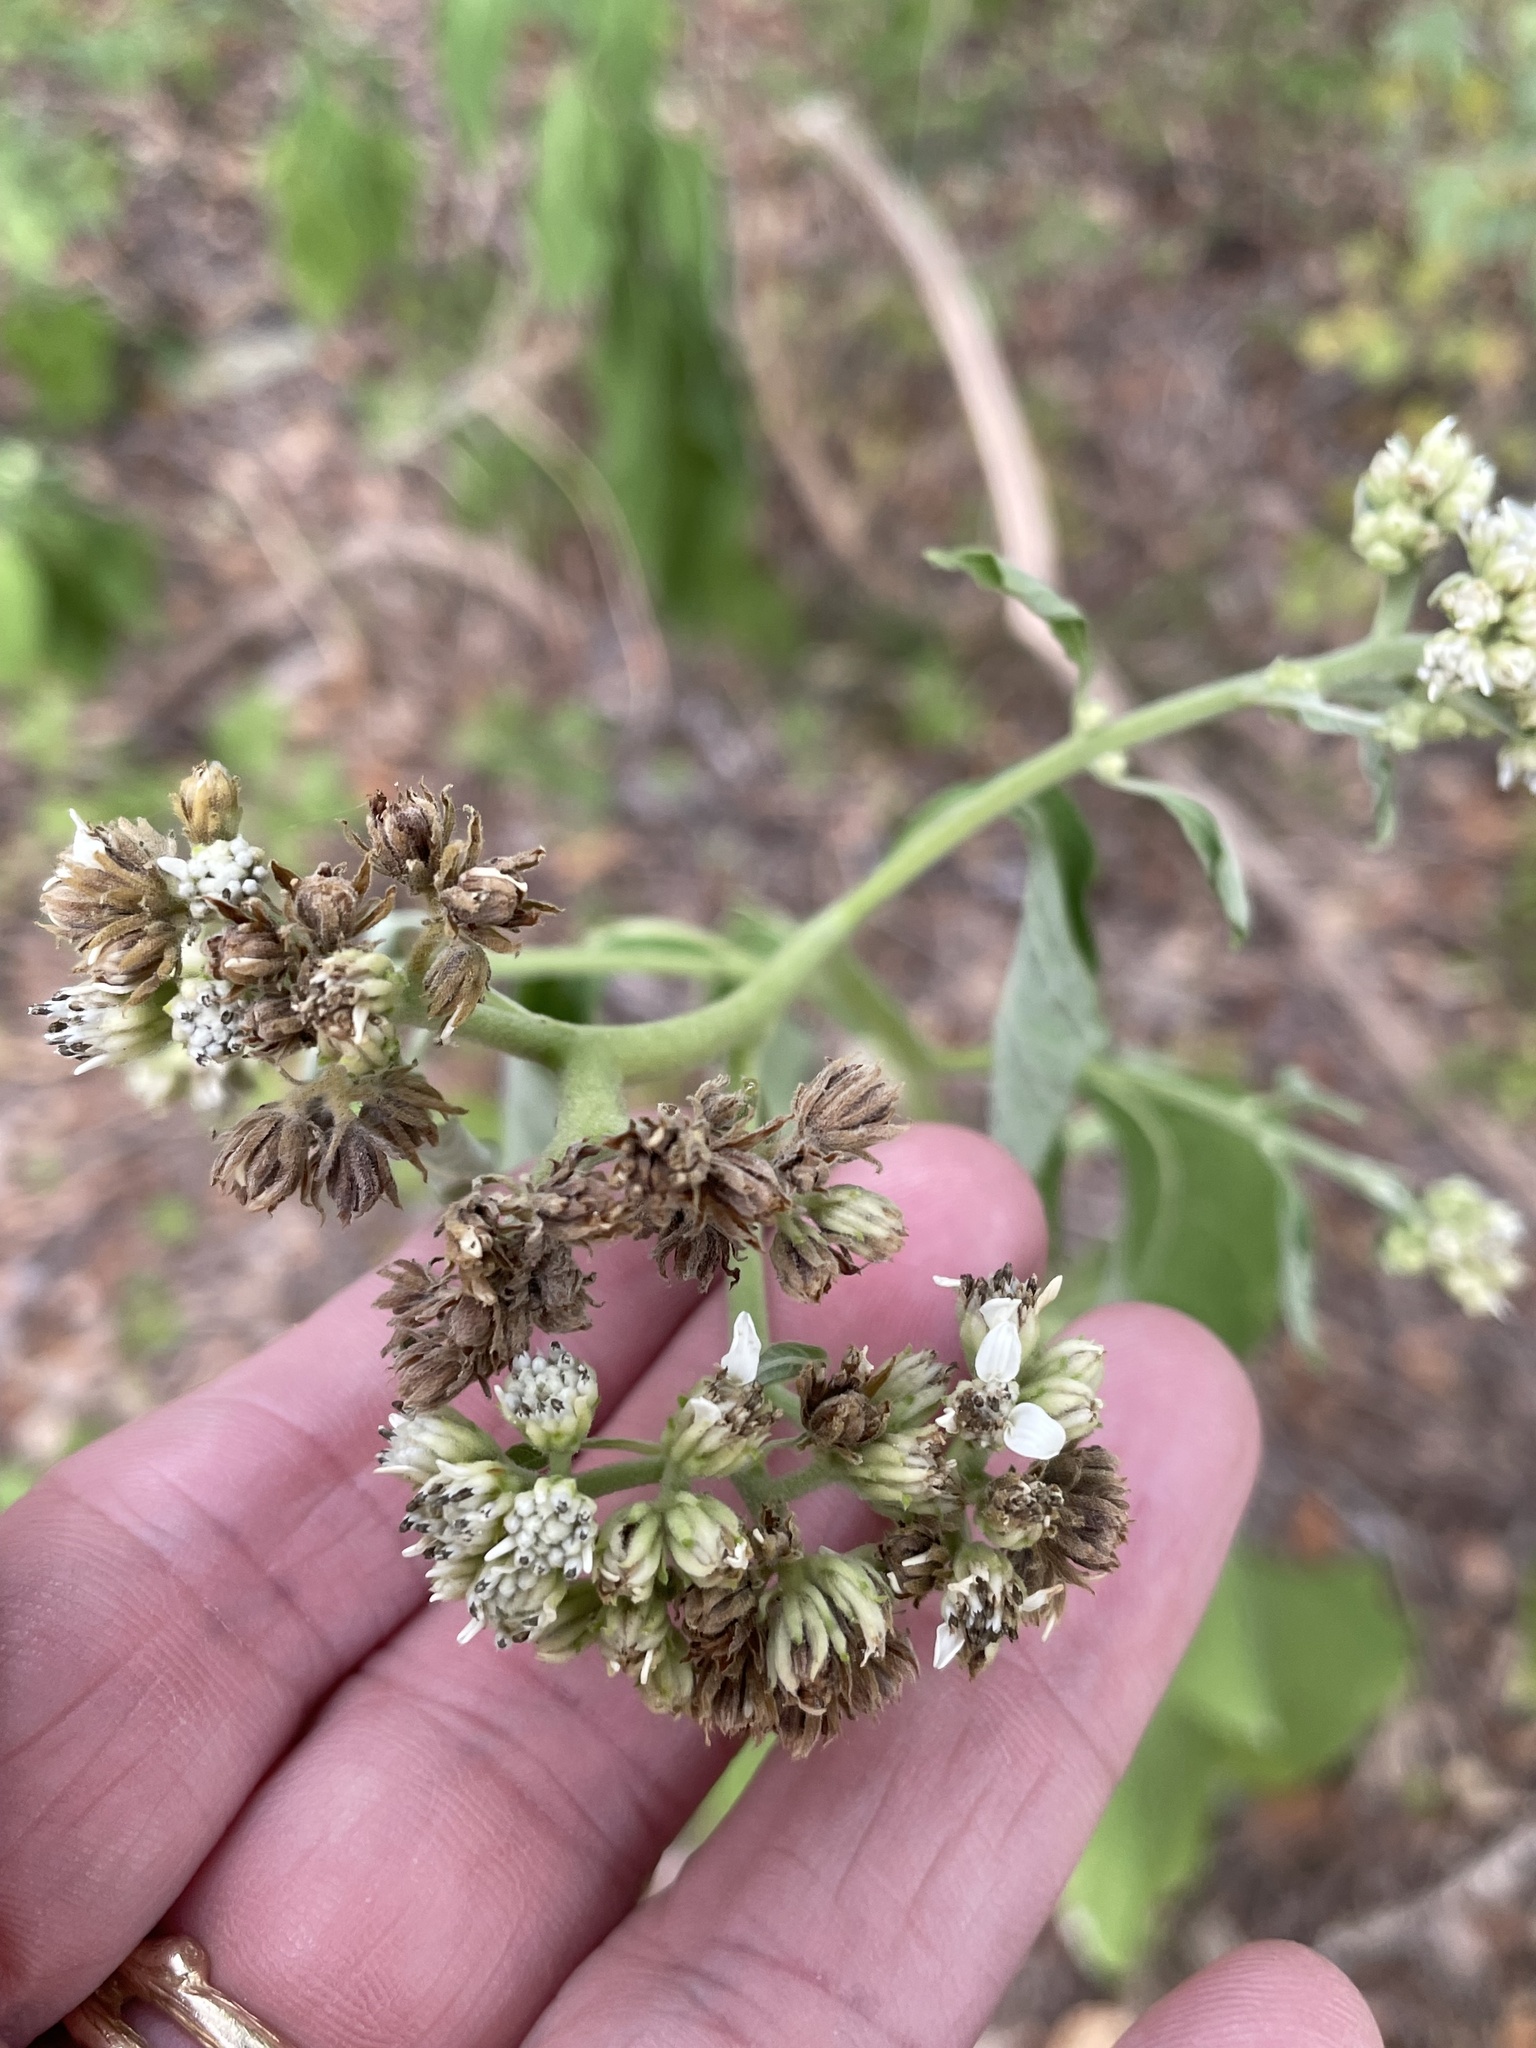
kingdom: Plantae
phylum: Tracheophyta
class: Magnoliopsida
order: Asterales
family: Asteraceae
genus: Verbesina
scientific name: Verbesina virginica
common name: Frostweed
